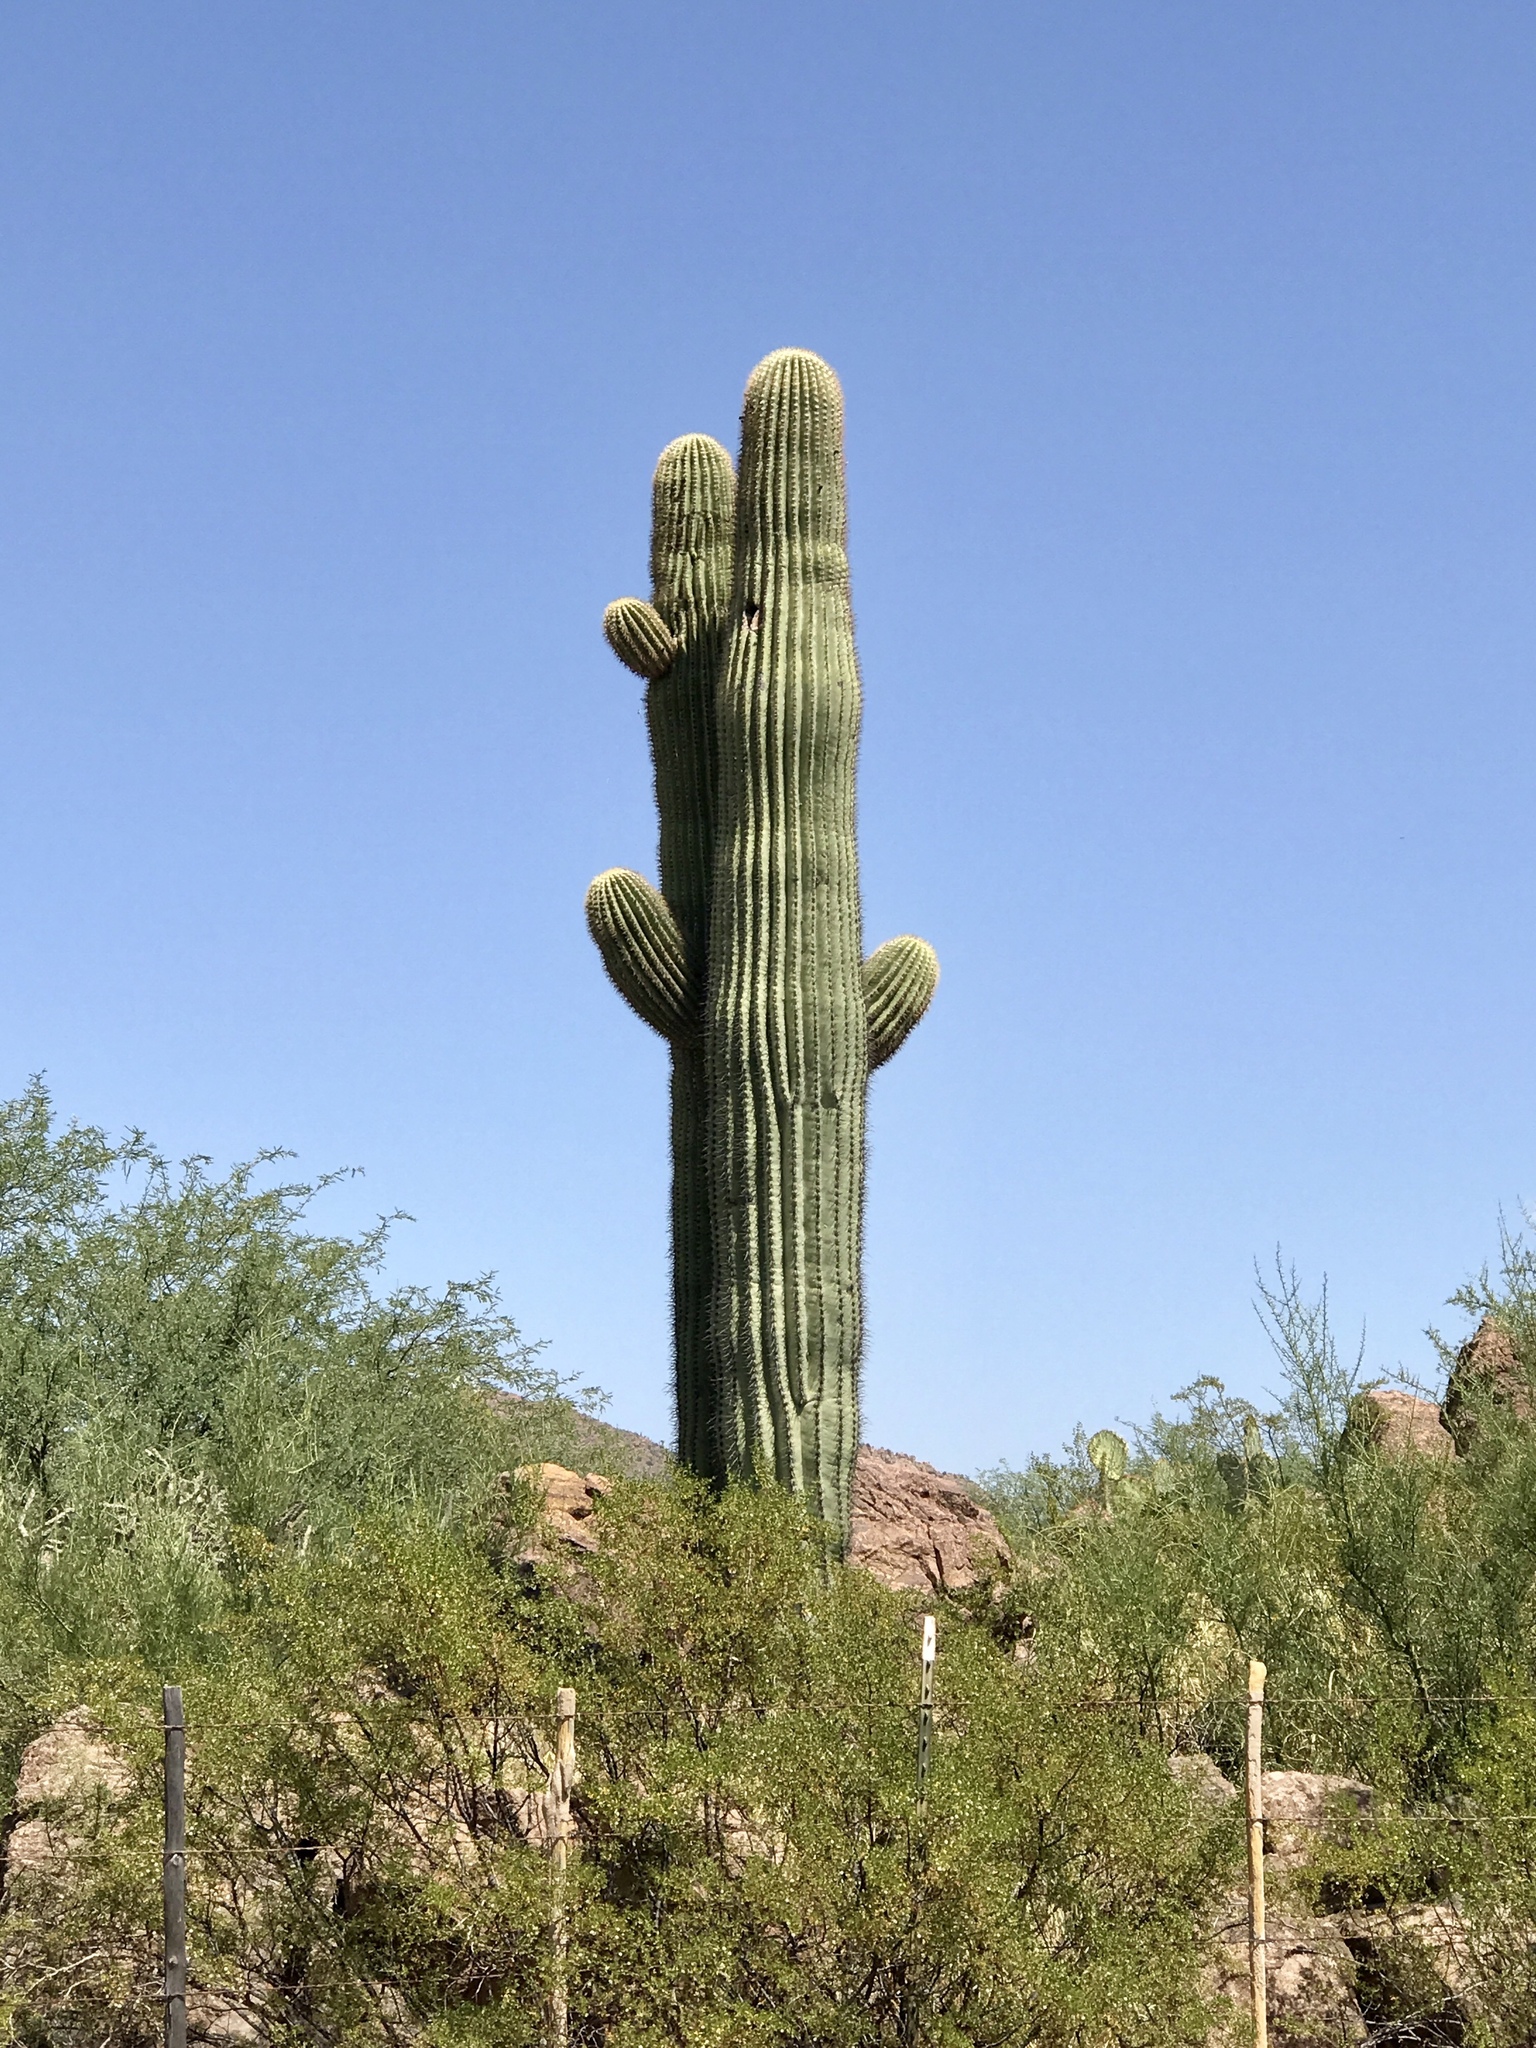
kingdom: Plantae
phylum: Tracheophyta
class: Magnoliopsida
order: Caryophyllales
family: Cactaceae
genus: Carnegiea
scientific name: Carnegiea gigantea
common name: Saguaro
